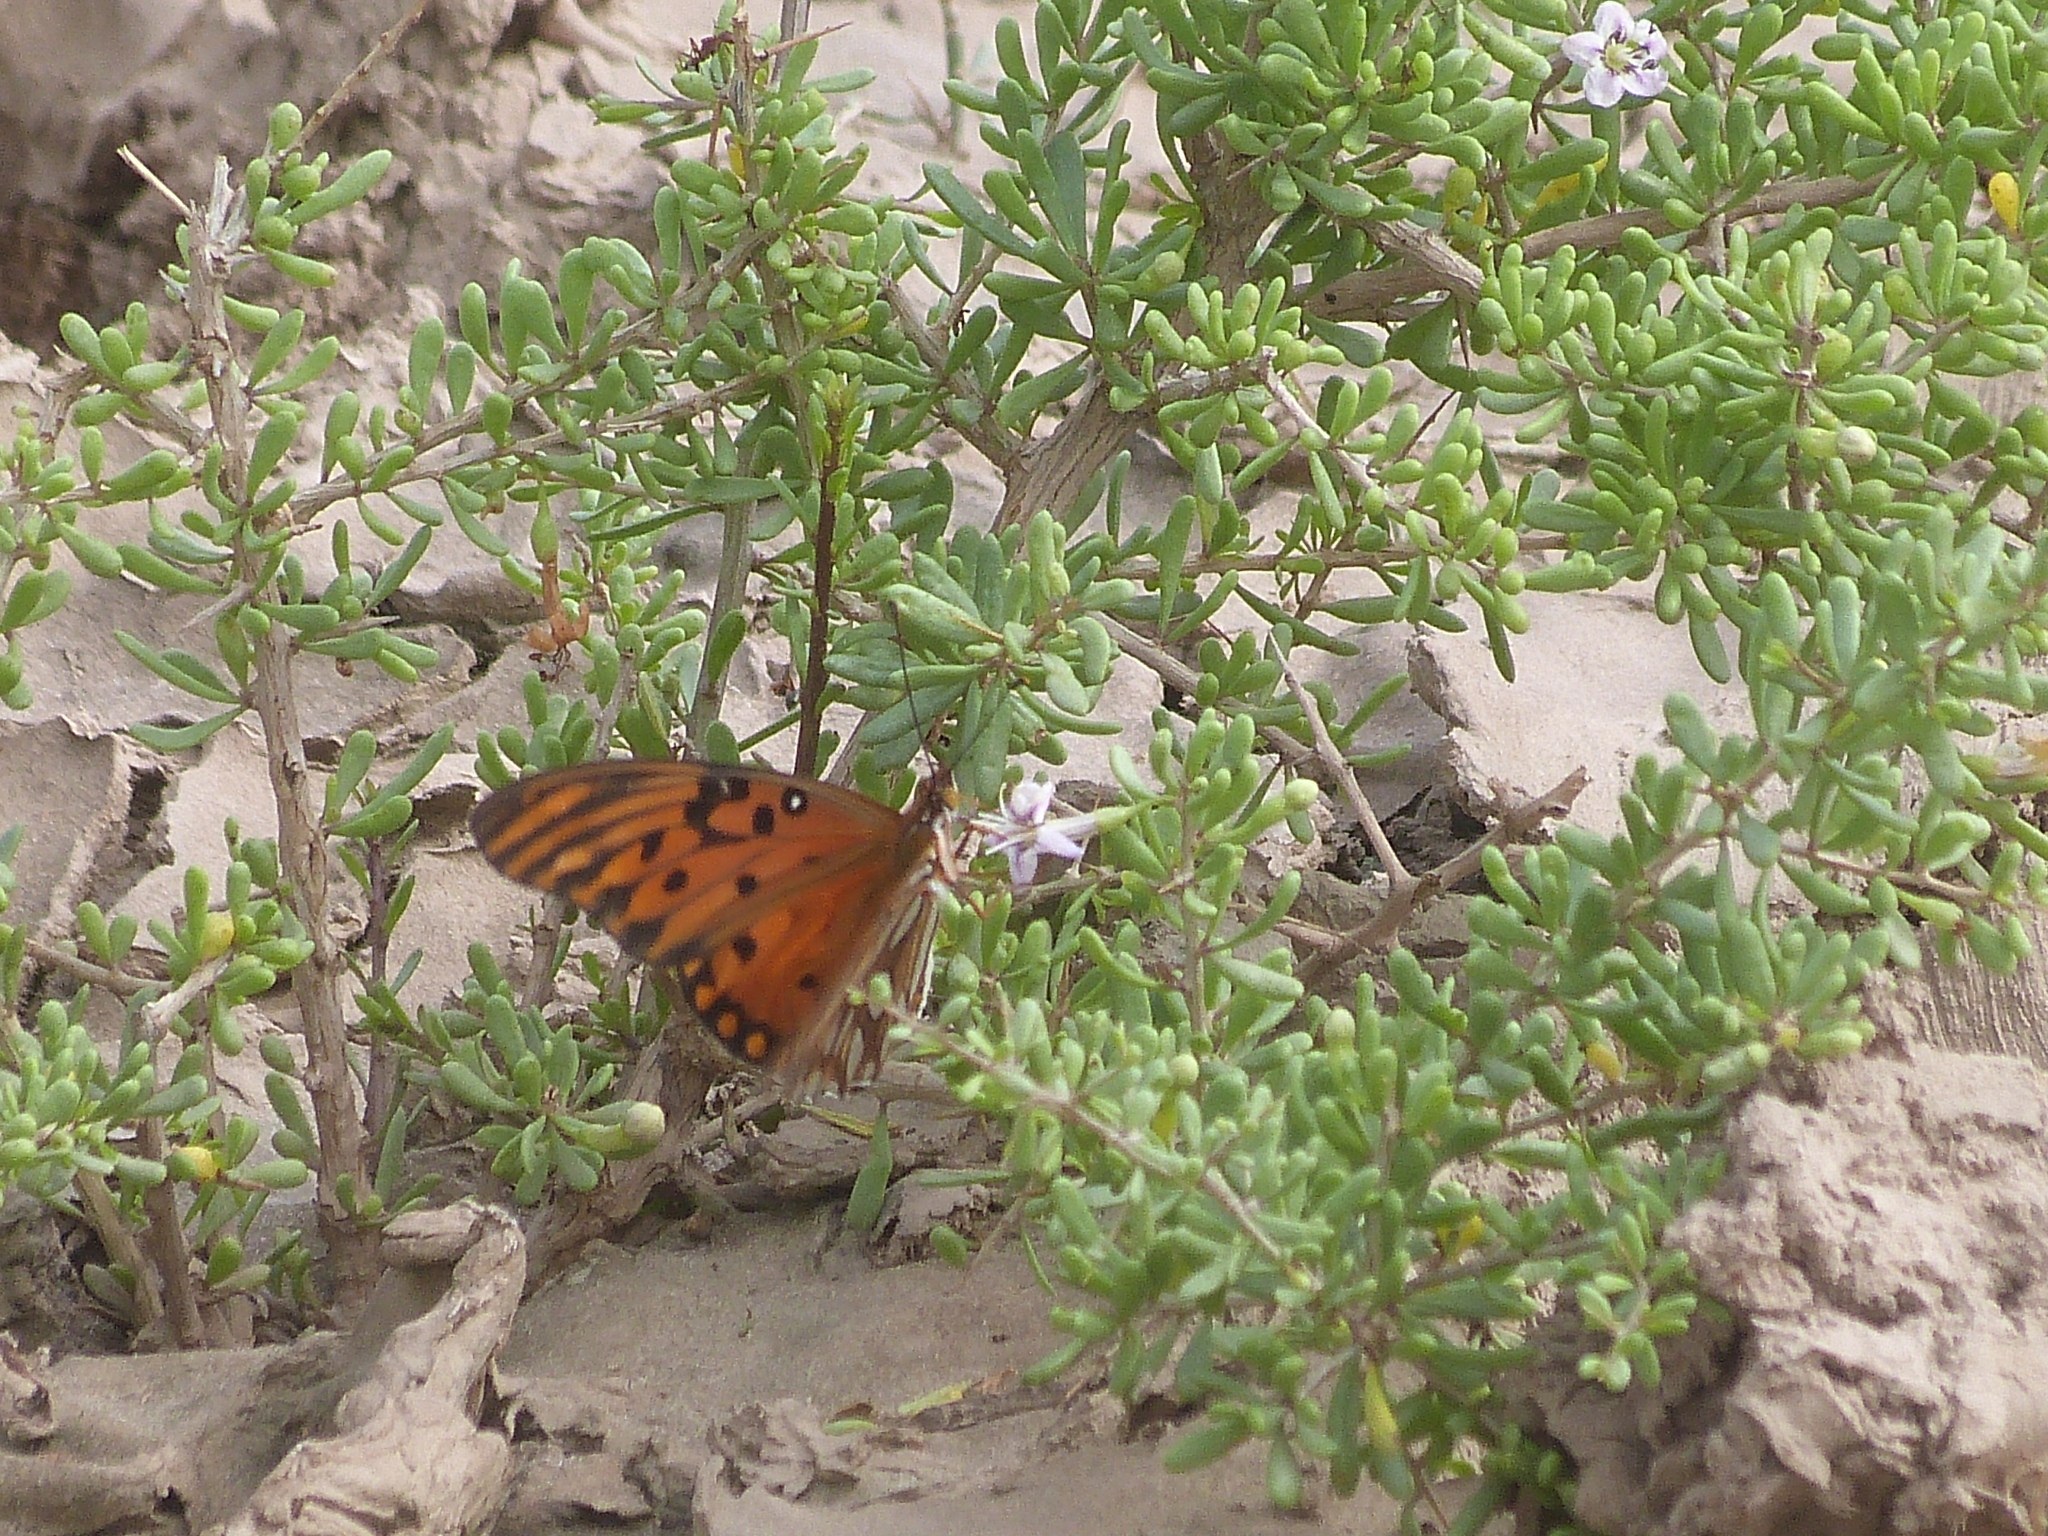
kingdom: Animalia
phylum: Arthropoda
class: Insecta
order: Lepidoptera
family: Nymphalidae
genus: Dione
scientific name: Dione vanillae
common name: Gulf fritillary
